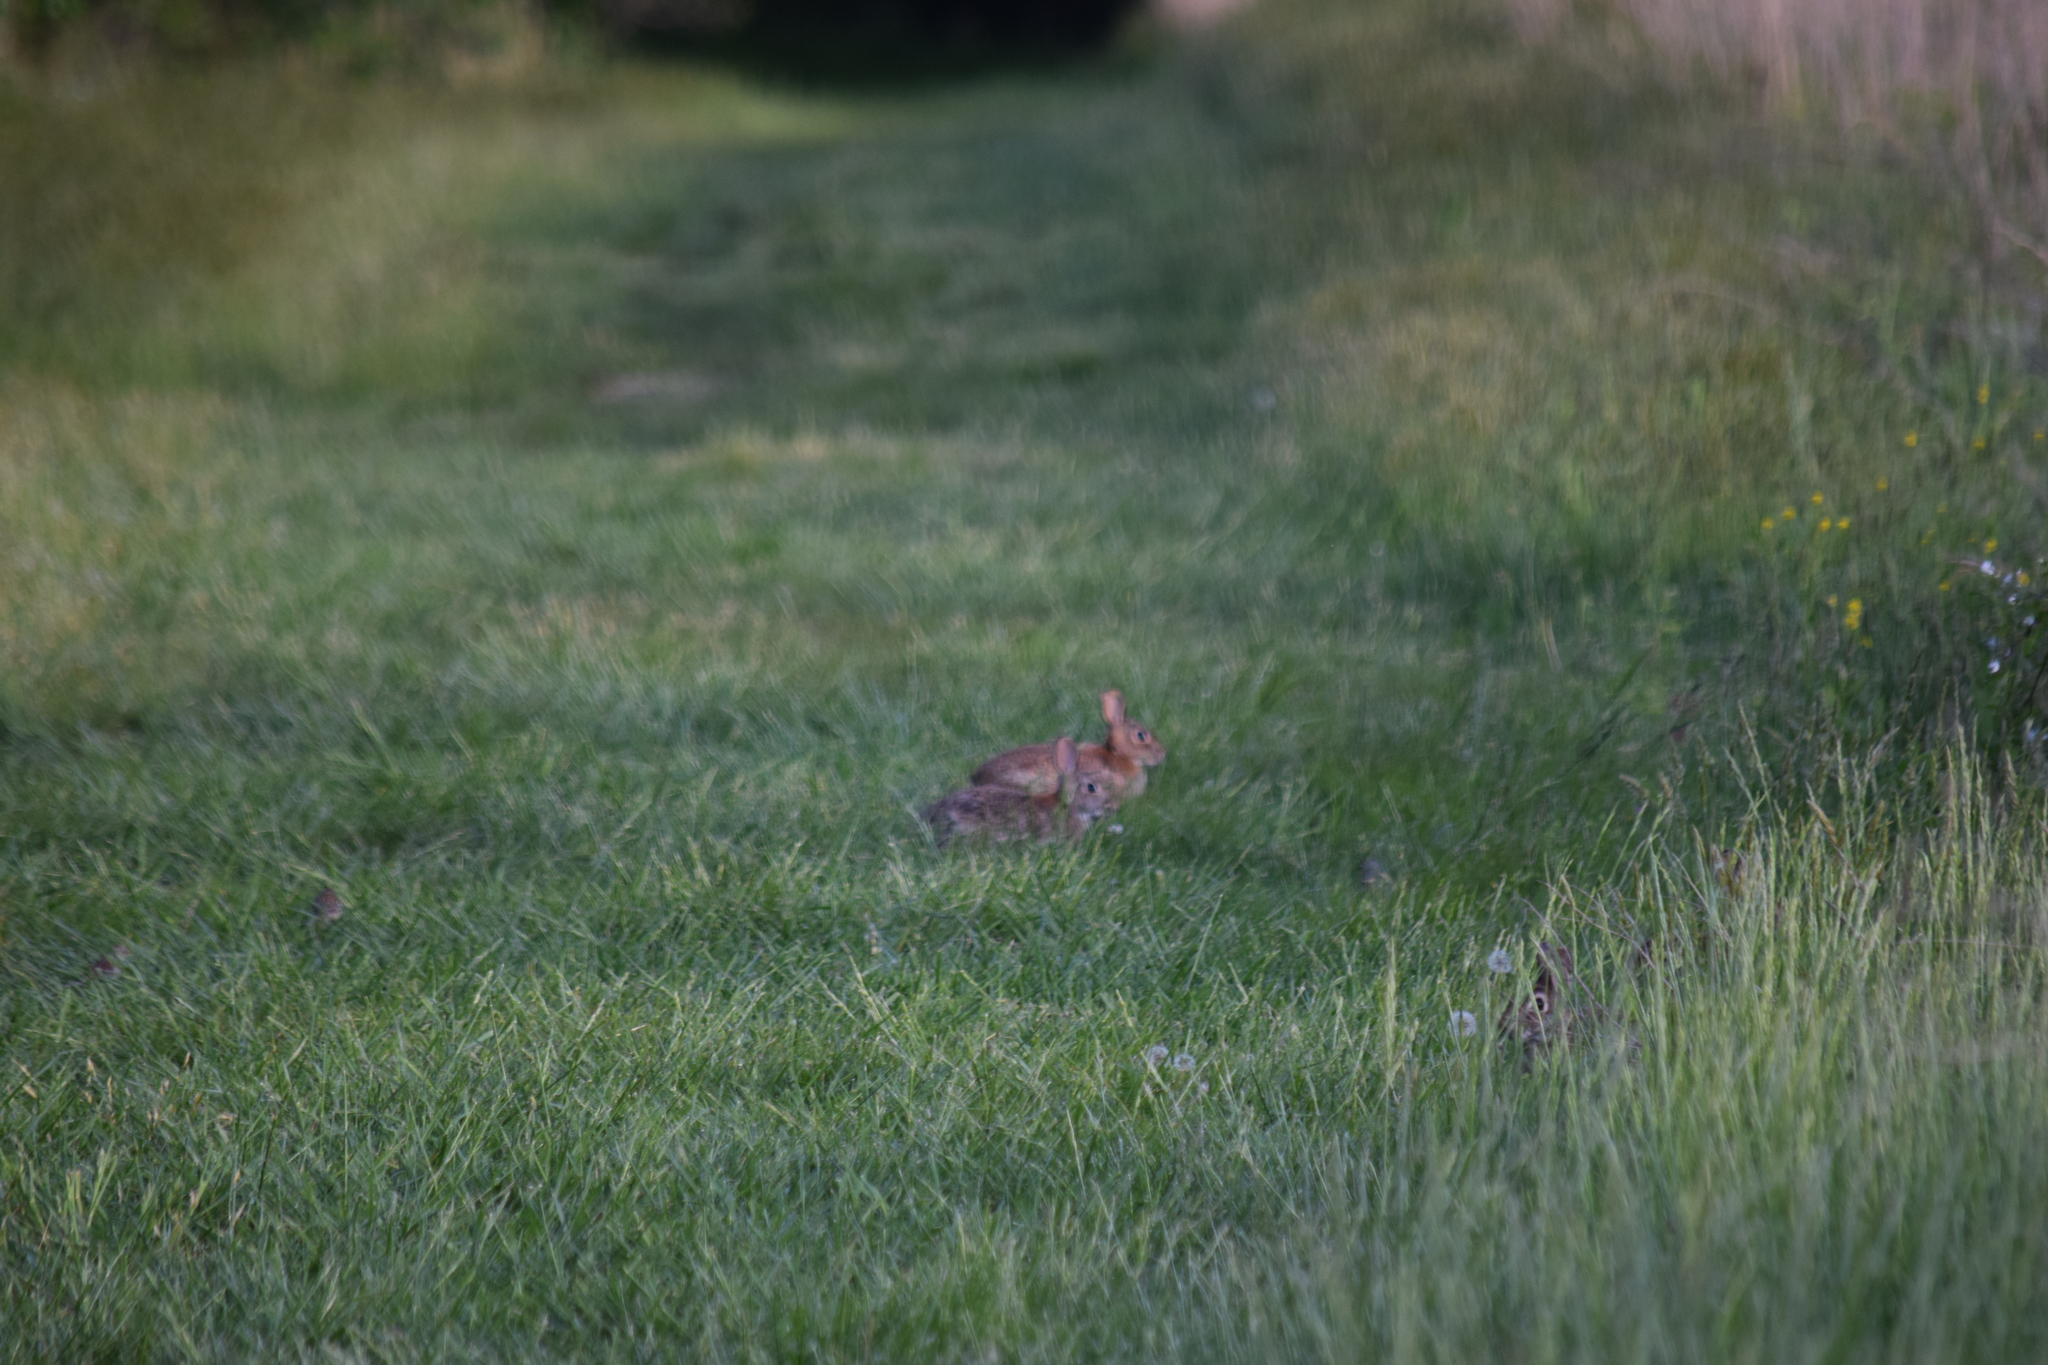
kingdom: Animalia
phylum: Chordata
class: Mammalia
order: Lagomorpha
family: Leporidae
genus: Sylvilagus
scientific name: Sylvilagus floridanus
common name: Eastern cottontail
